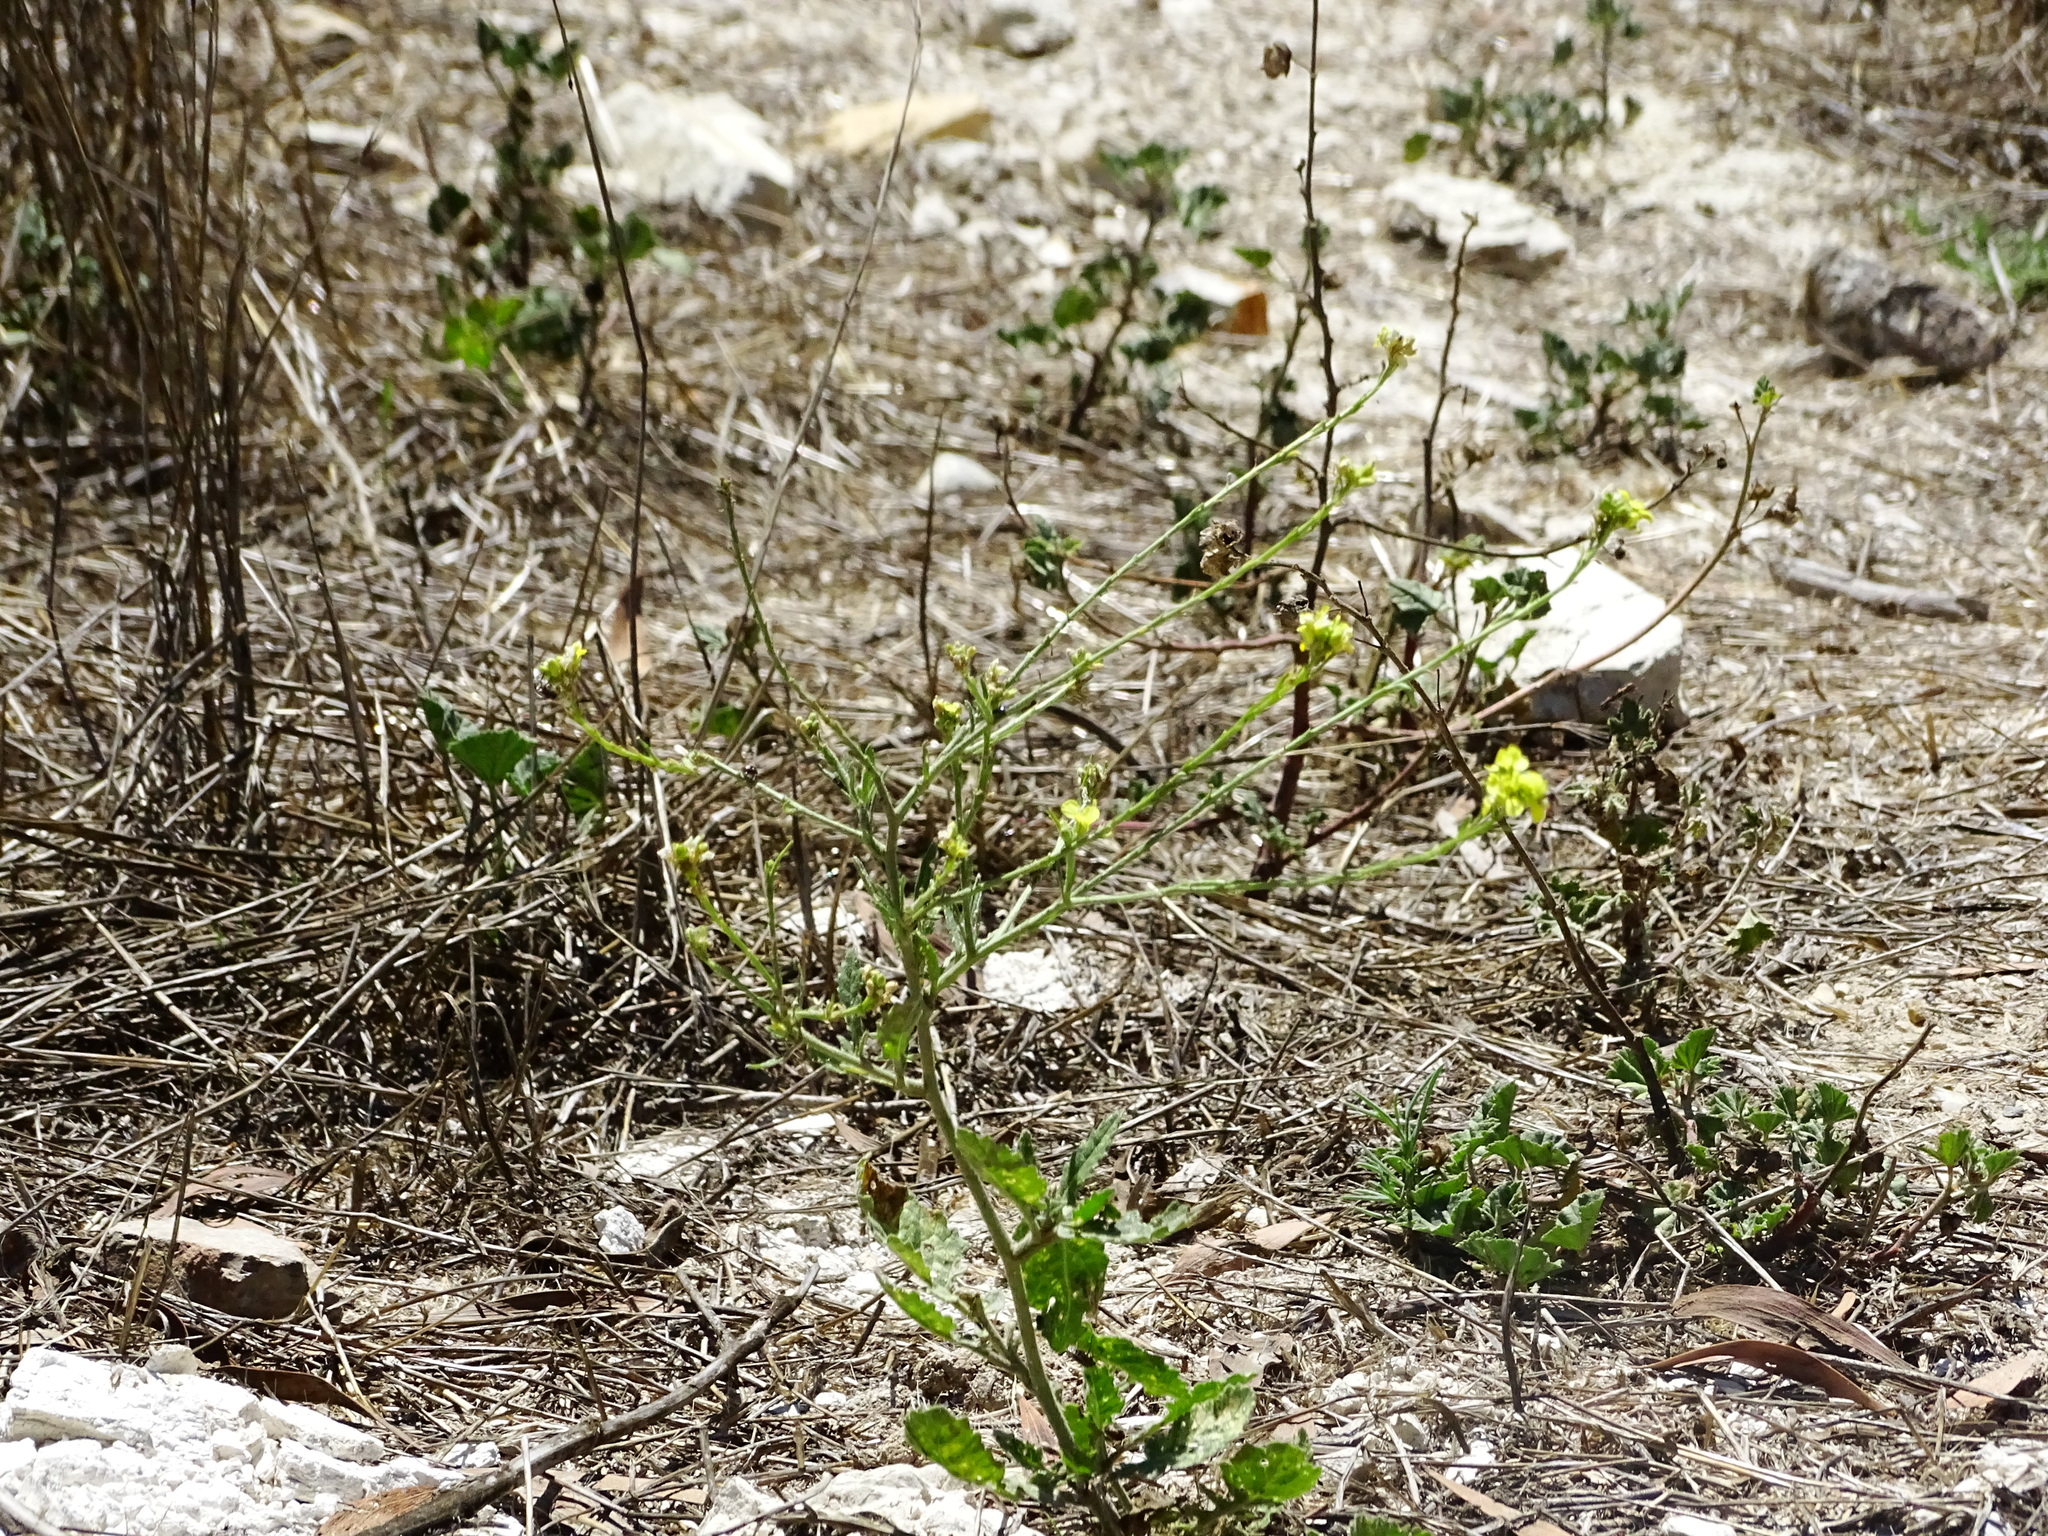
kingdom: Plantae
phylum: Tracheophyta
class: Magnoliopsida
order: Brassicales
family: Brassicaceae
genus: Hirschfeldia
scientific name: Hirschfeldia incana
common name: Hoary mustard
